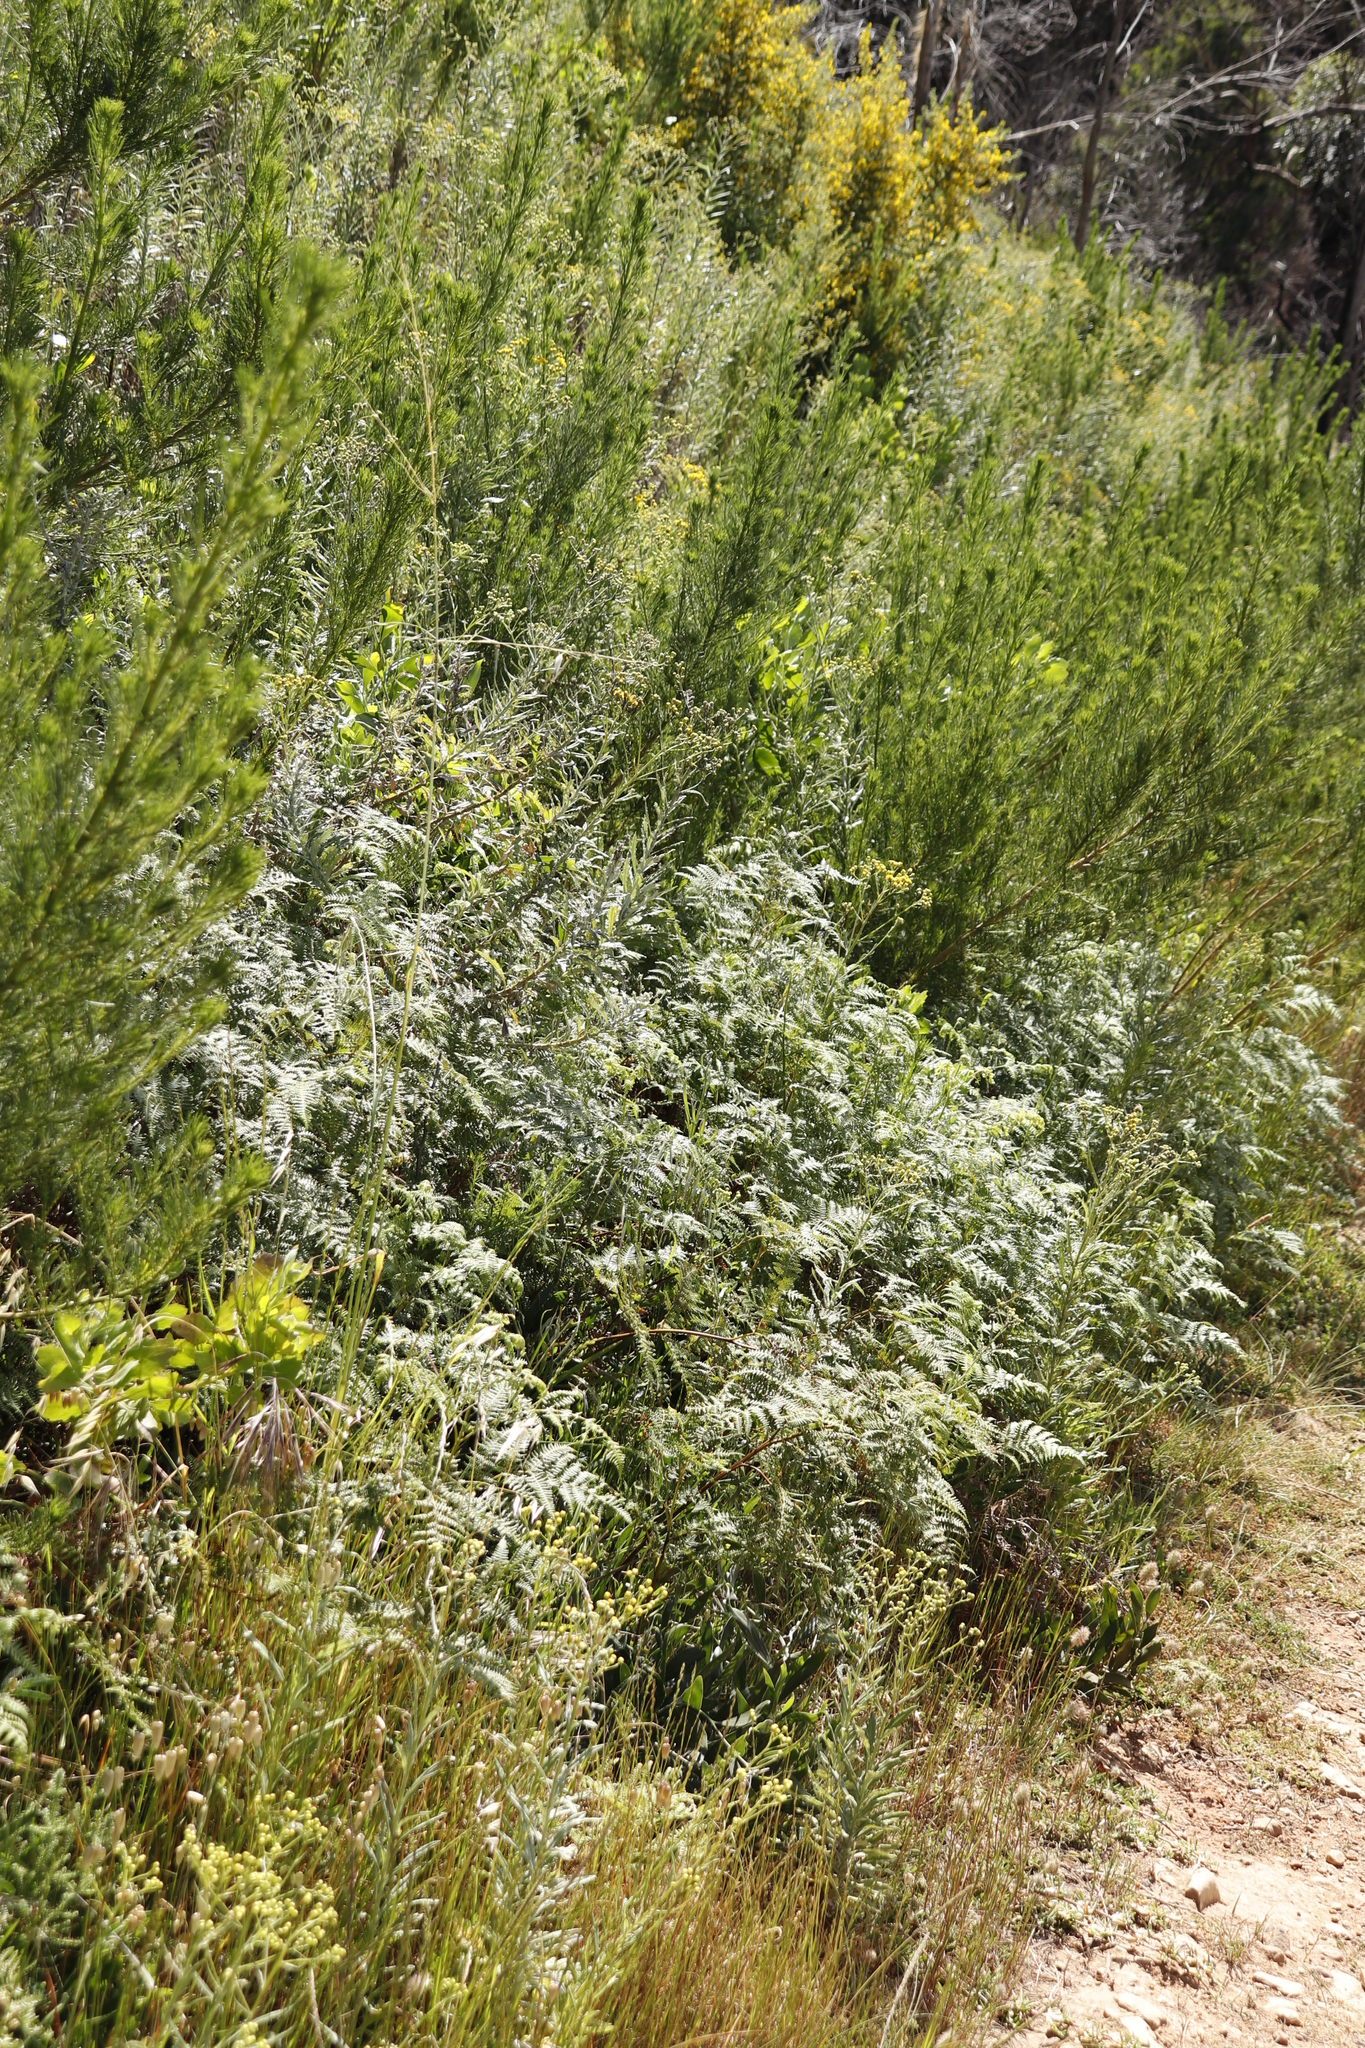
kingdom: Plantae
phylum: Tracheophyta
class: Polypodiopsida
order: Polypodiales
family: Dennstaedtiaceae
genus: Pteridium
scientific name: Pteridium aquilinum
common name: Bracken
